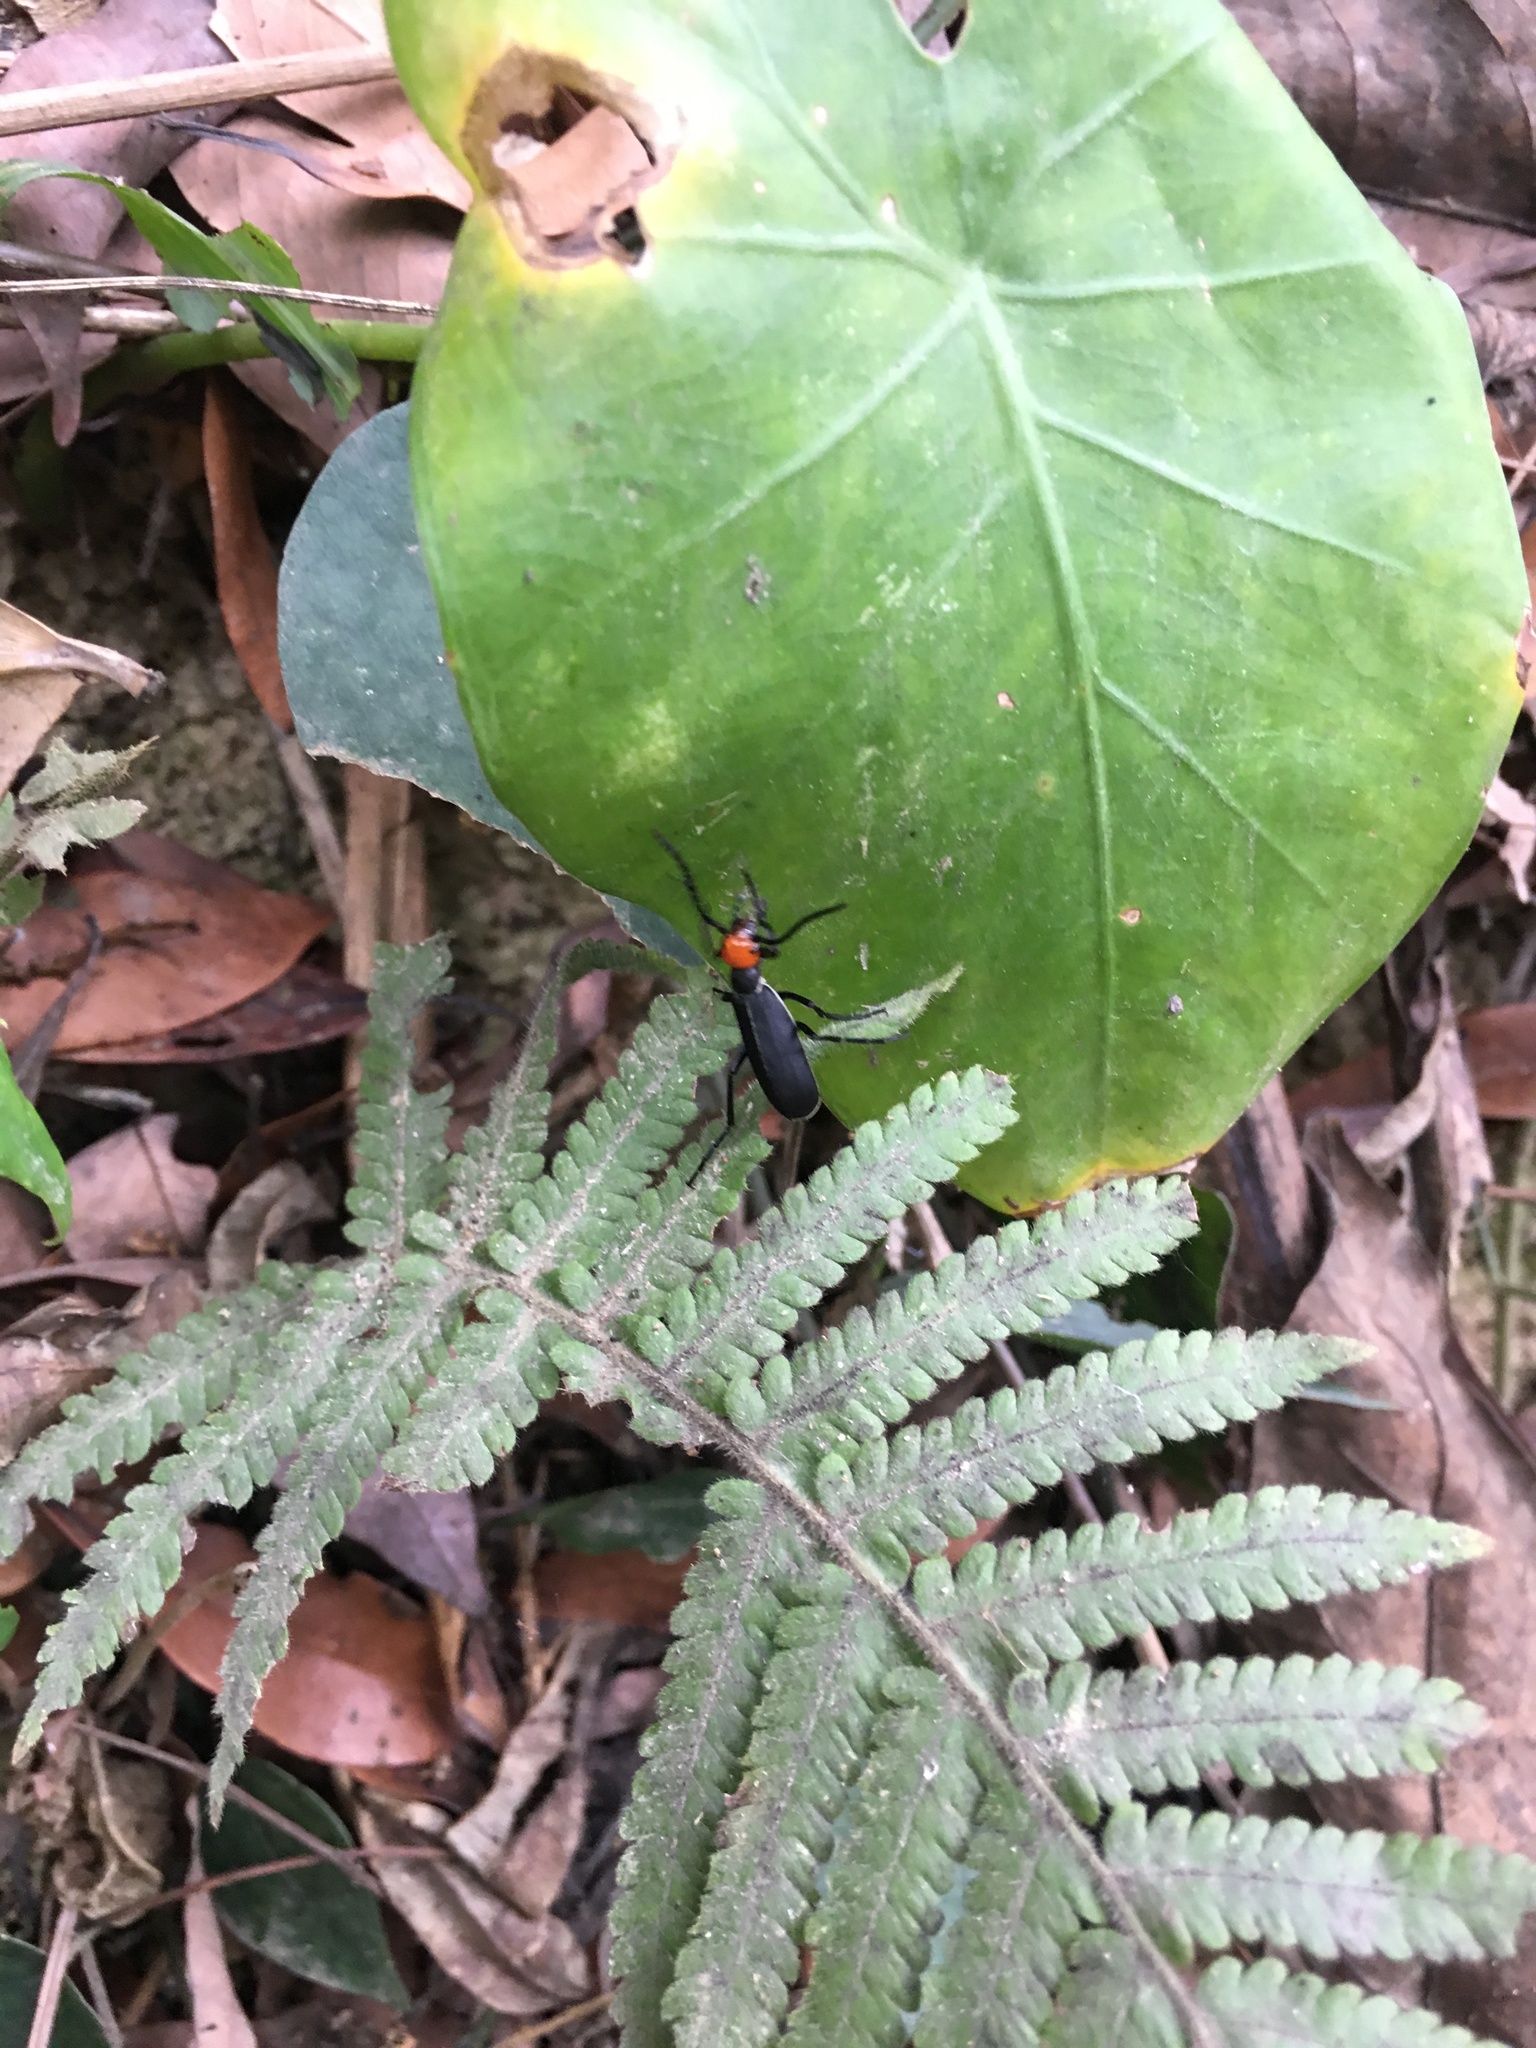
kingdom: Animalia
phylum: Arthropoda
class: Insecta
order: Coleoptera
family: Meloidae
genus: Epicauta
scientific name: Epicauta hirticornis
